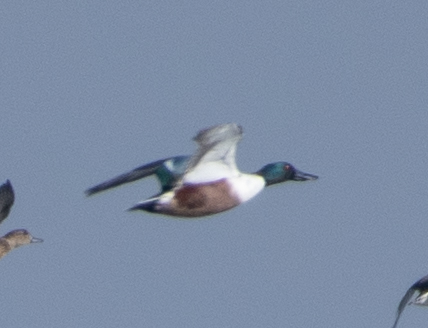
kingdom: Animalia
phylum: Chordata
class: Aves
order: Anseriformes
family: Anatidae
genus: Spatula
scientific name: Spatula clypeata
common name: Northern shoveler
